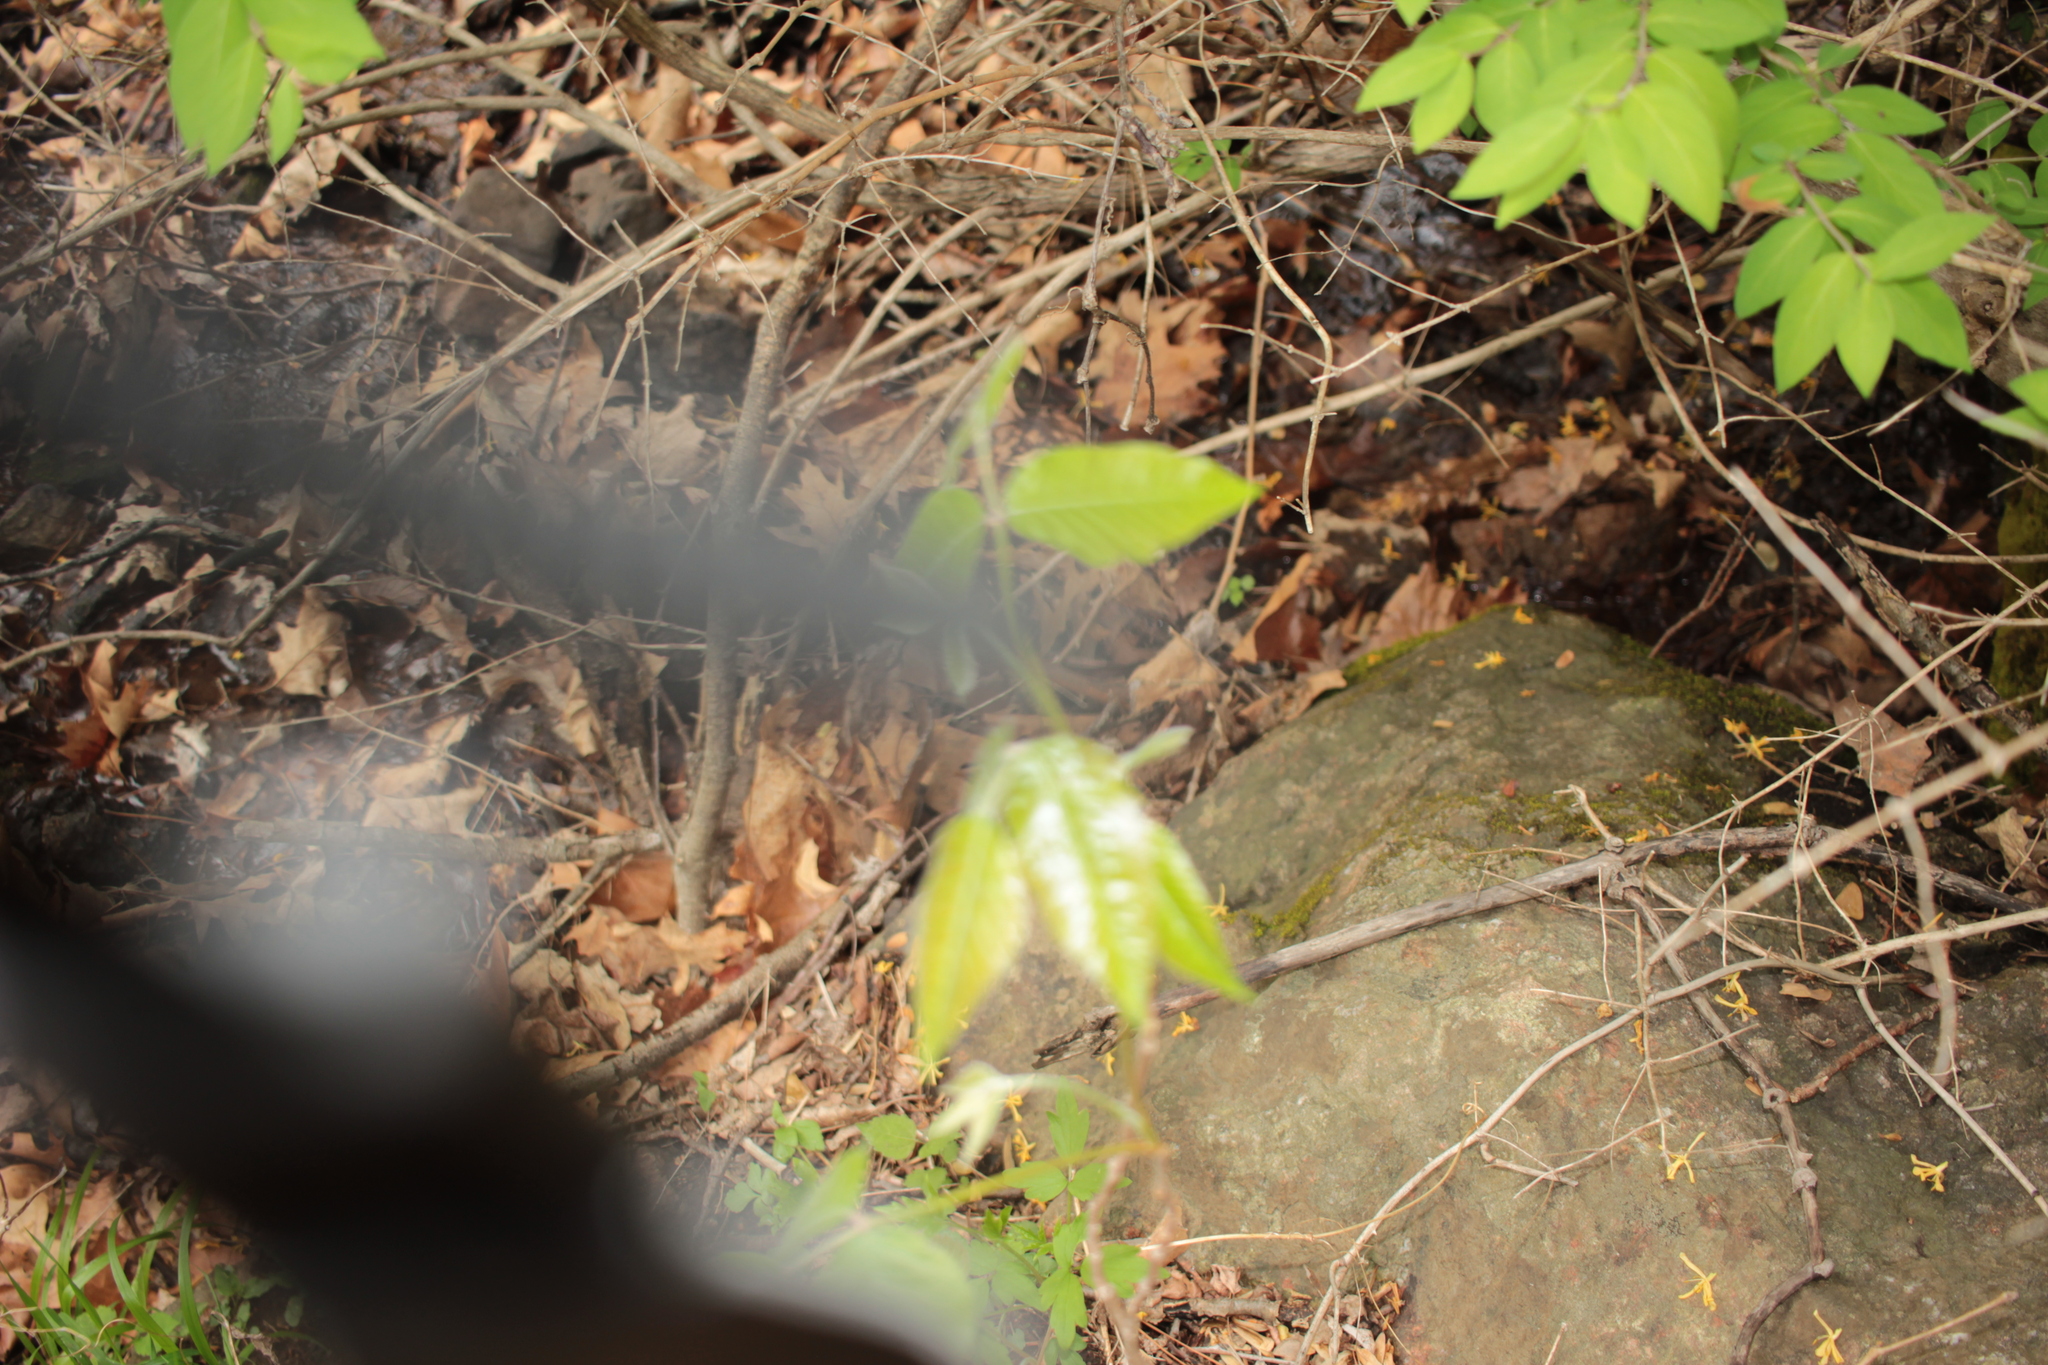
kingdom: Plantae
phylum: Tracheophyta
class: Magnoliopsida
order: Sapindales
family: Anacardiaceae
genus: Toxicodendron
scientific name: Toxicodendron radicans
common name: Poison ivy
